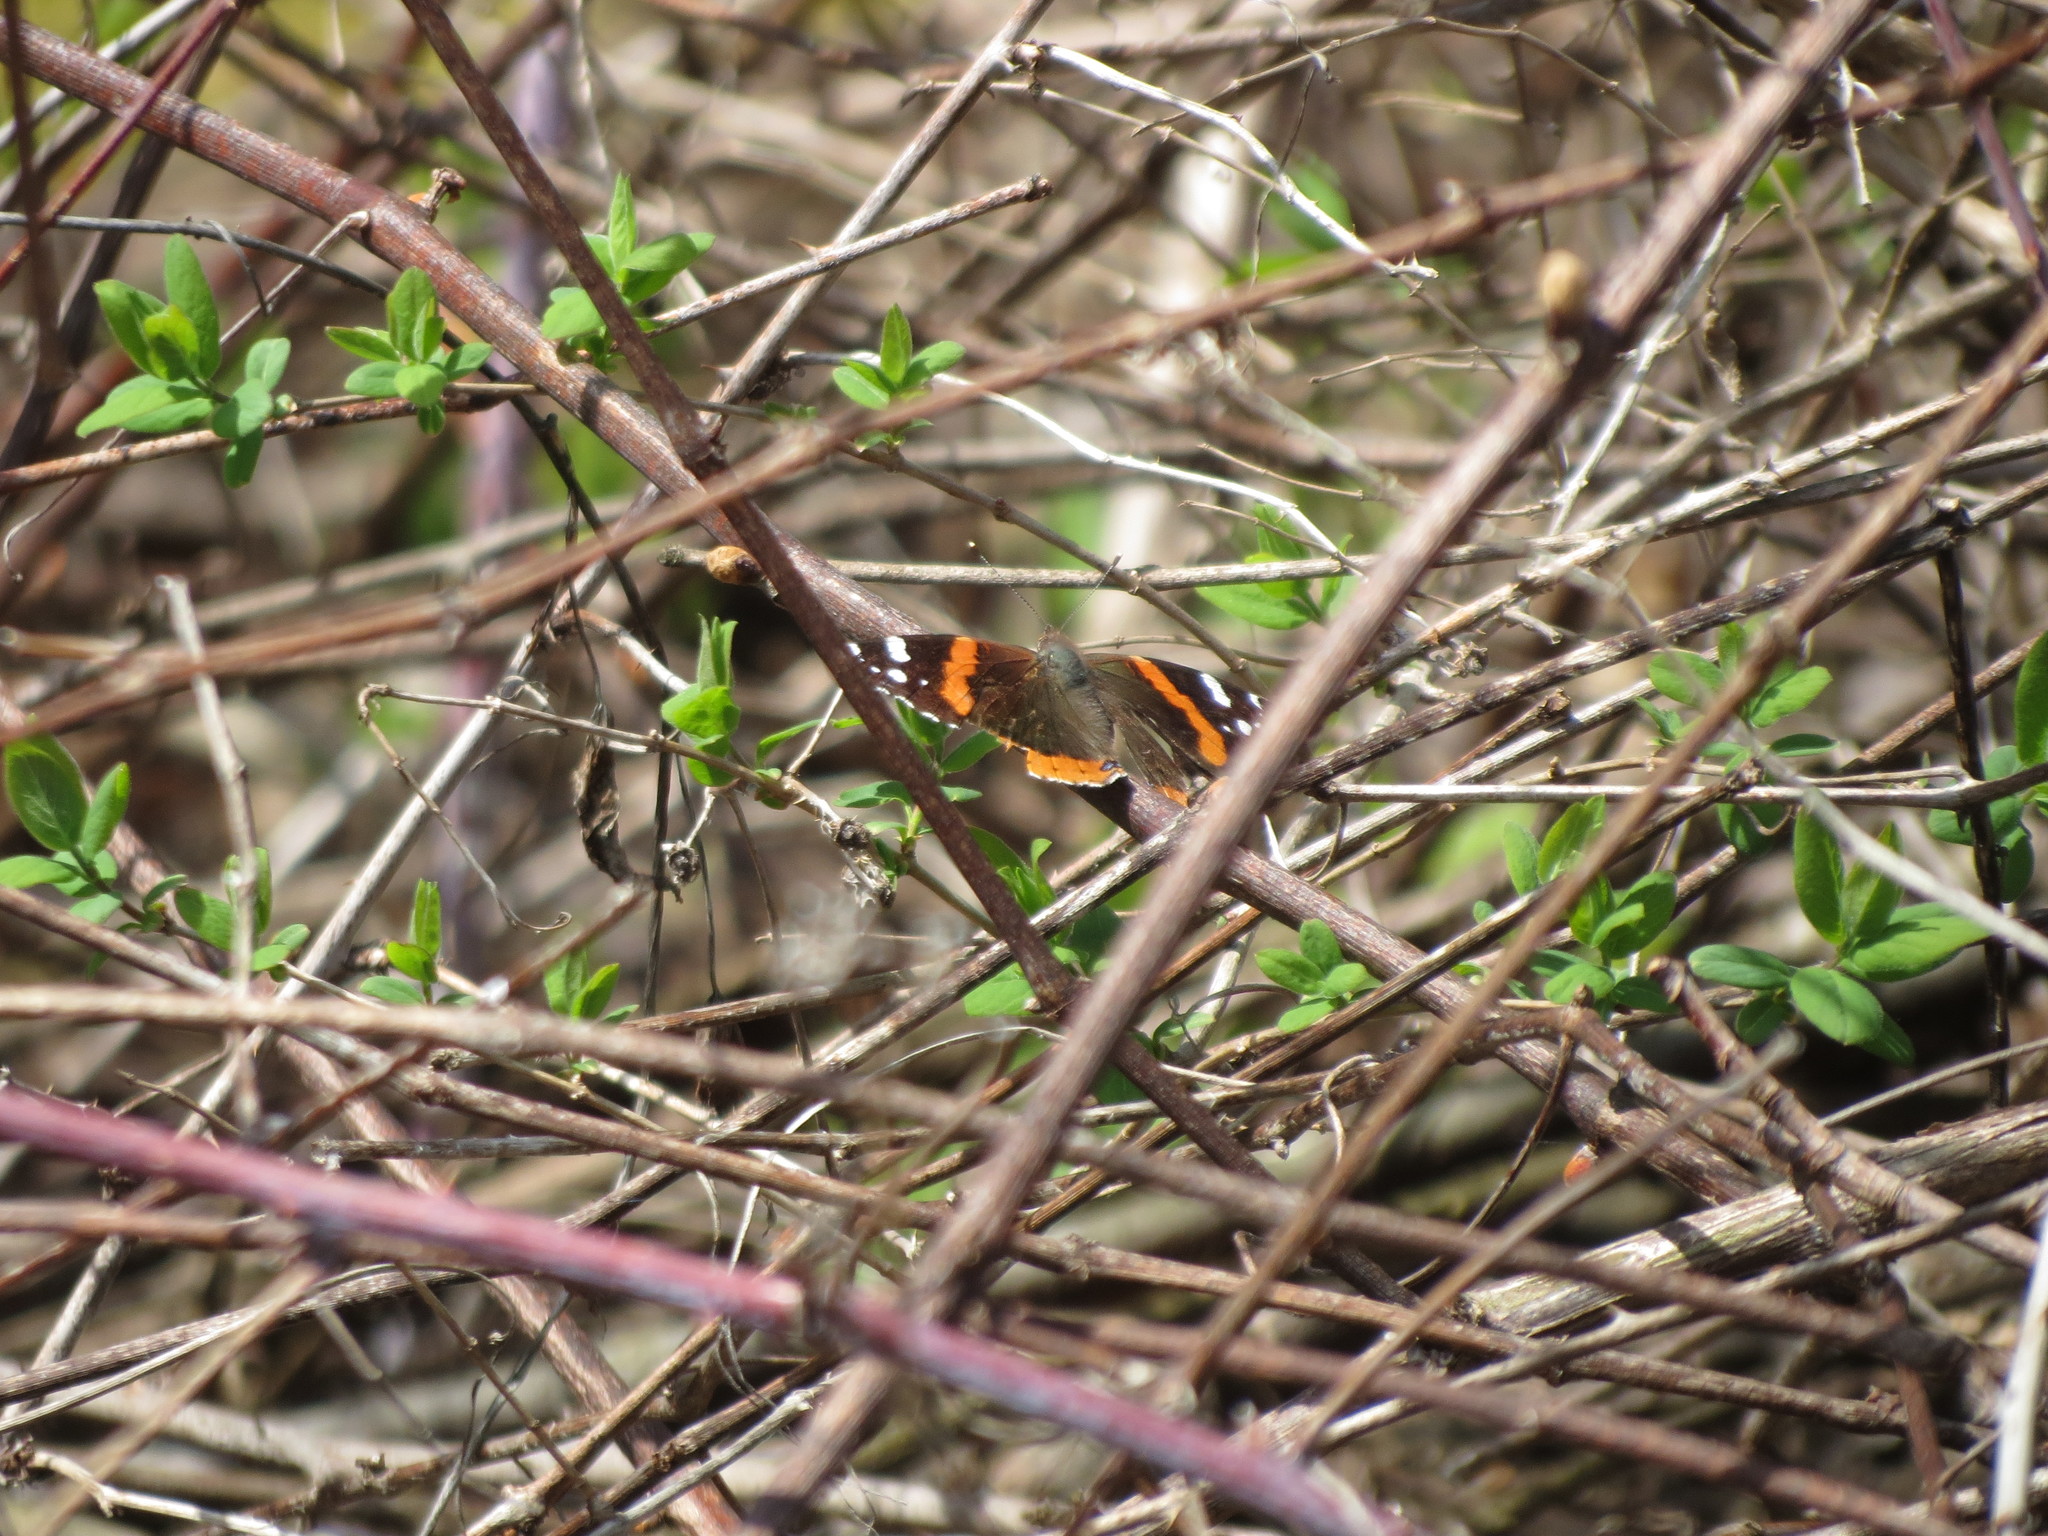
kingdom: Animalia
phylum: Arthropoda
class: Insecta
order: Lepidoptera
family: Nymphalidae
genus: Vanessa
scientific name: Vanessa atalanta
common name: Red admiral
